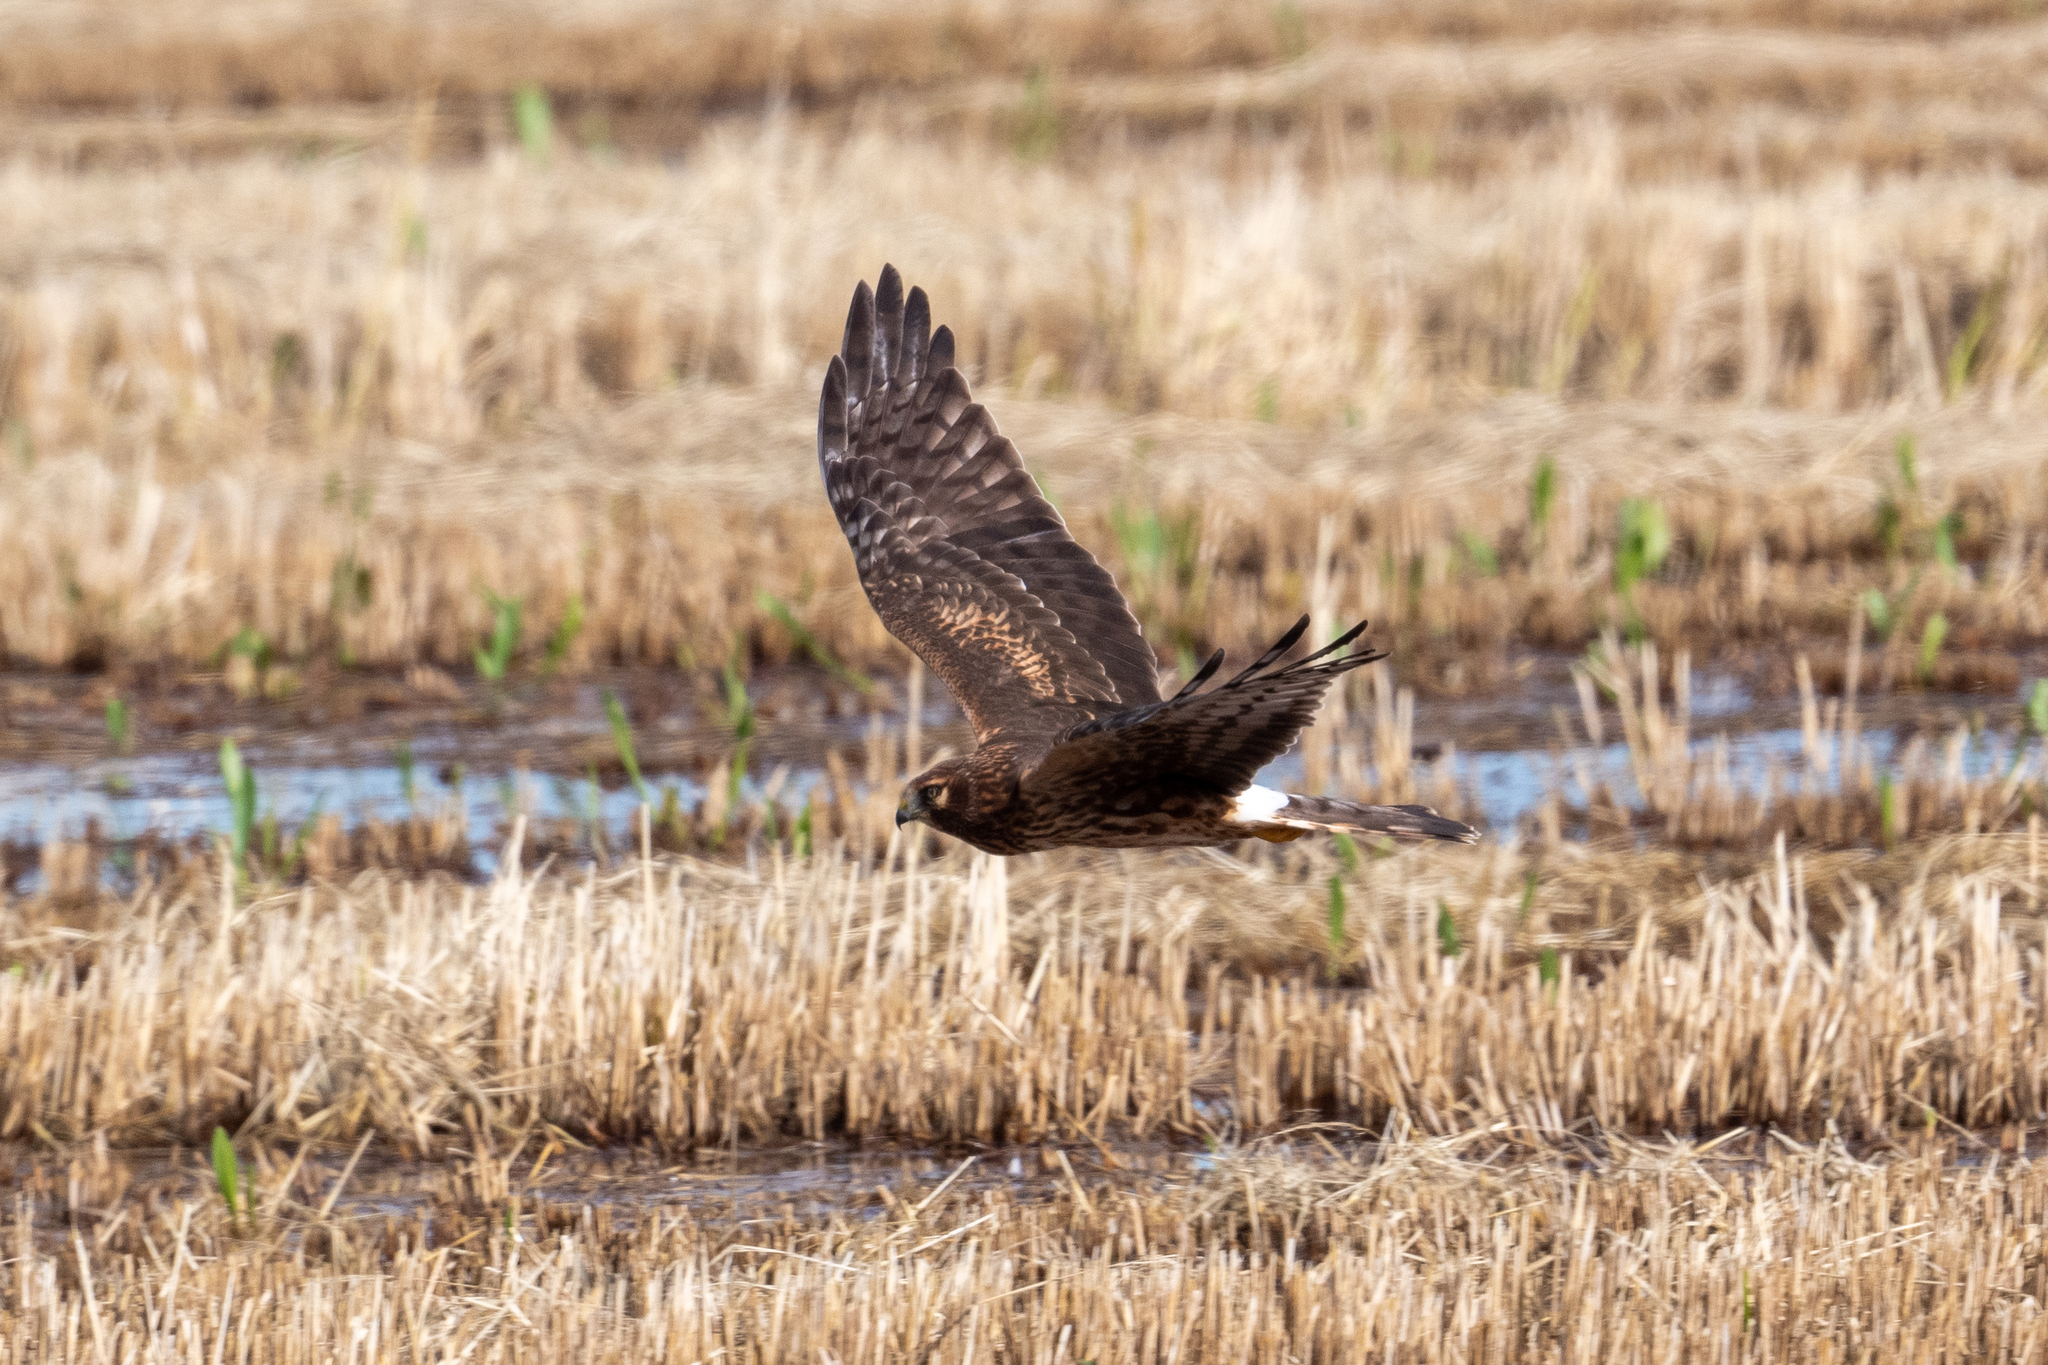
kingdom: Animalia
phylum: Chordata
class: Aves
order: Accipitriformes
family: Accipitridae
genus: Circus
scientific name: Circus cyaneus
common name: Hen harrier
